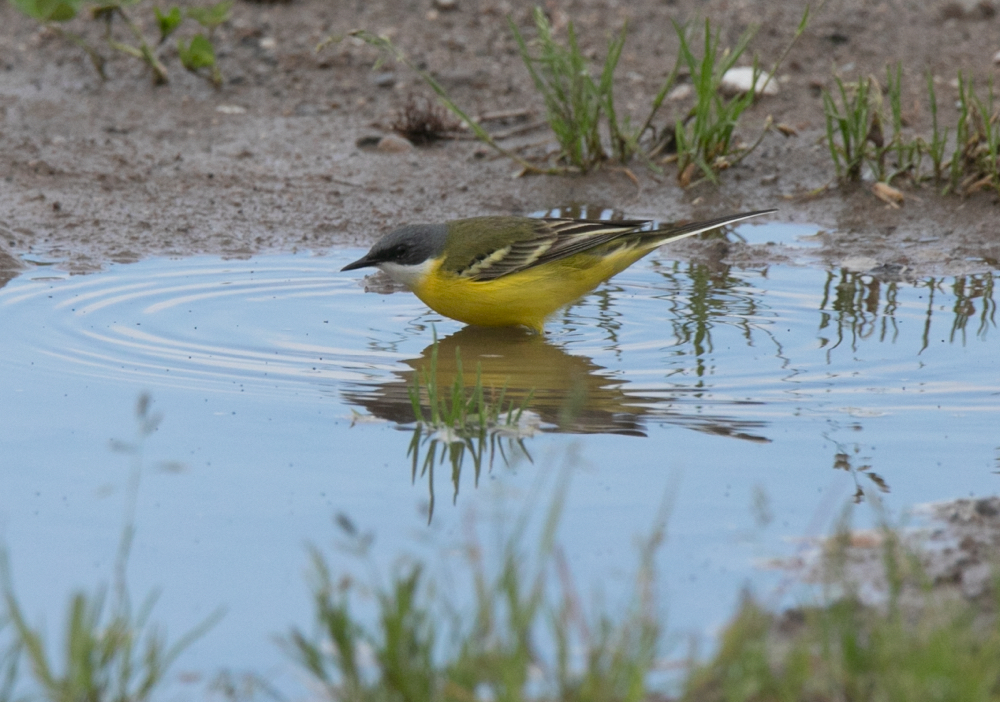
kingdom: Animalia
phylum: Chordata
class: Aves
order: Passeriformes
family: Motacillidae
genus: Motacilla
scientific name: Motacilla flava
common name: Western yellow wagtail
